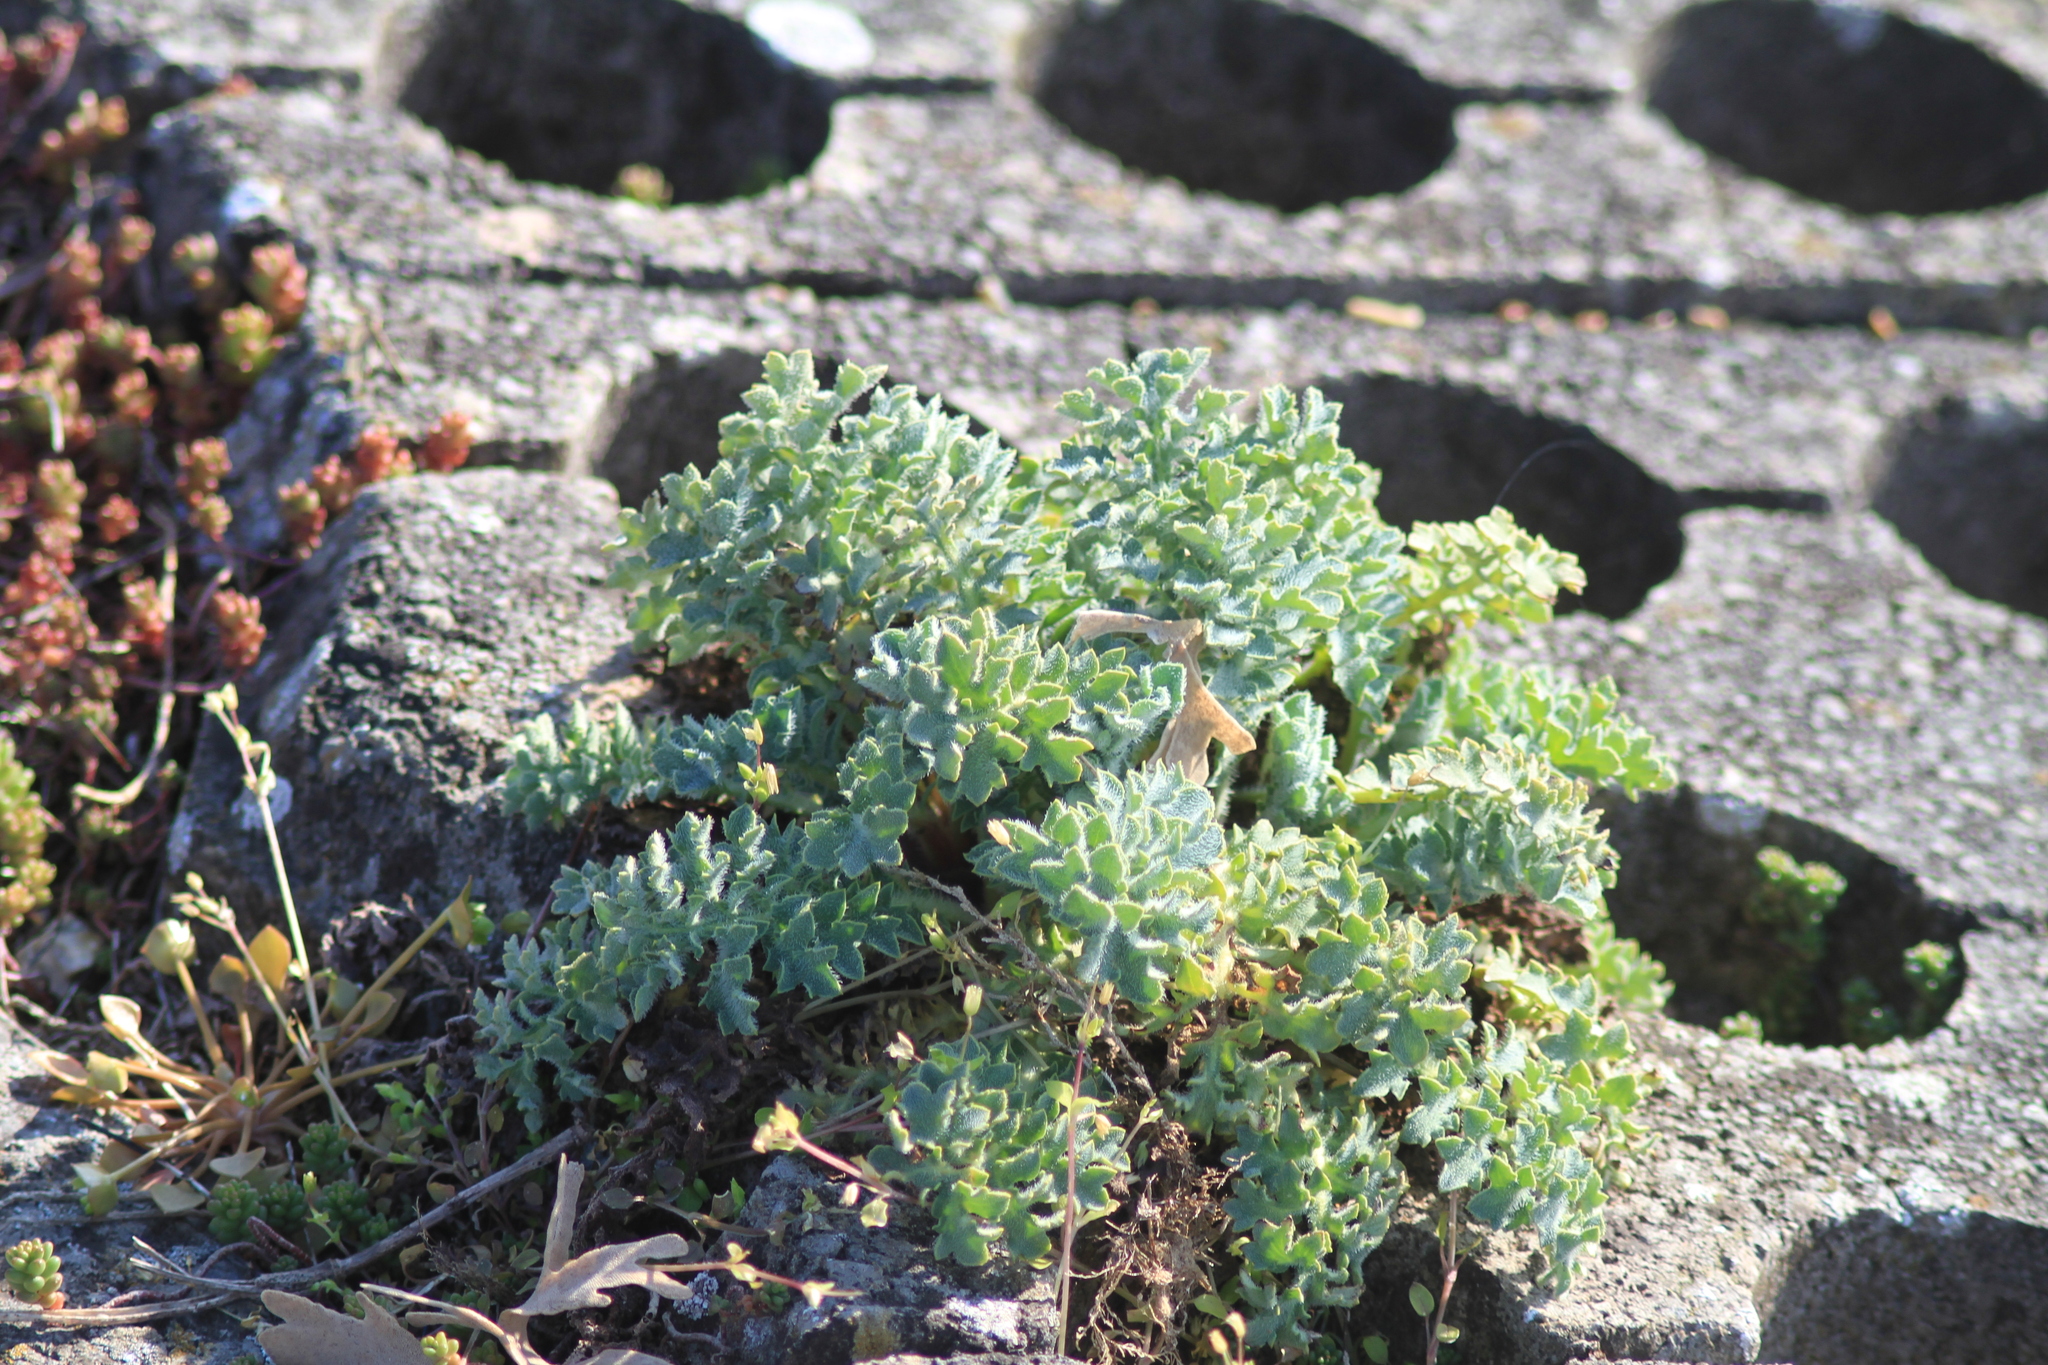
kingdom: Plantae
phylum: Tracheophyta
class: Magnoliopsida
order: Ranunculales
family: Papaveraceae
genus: Glaucium
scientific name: Glaucium flavum
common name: Yellow horned-poppy
